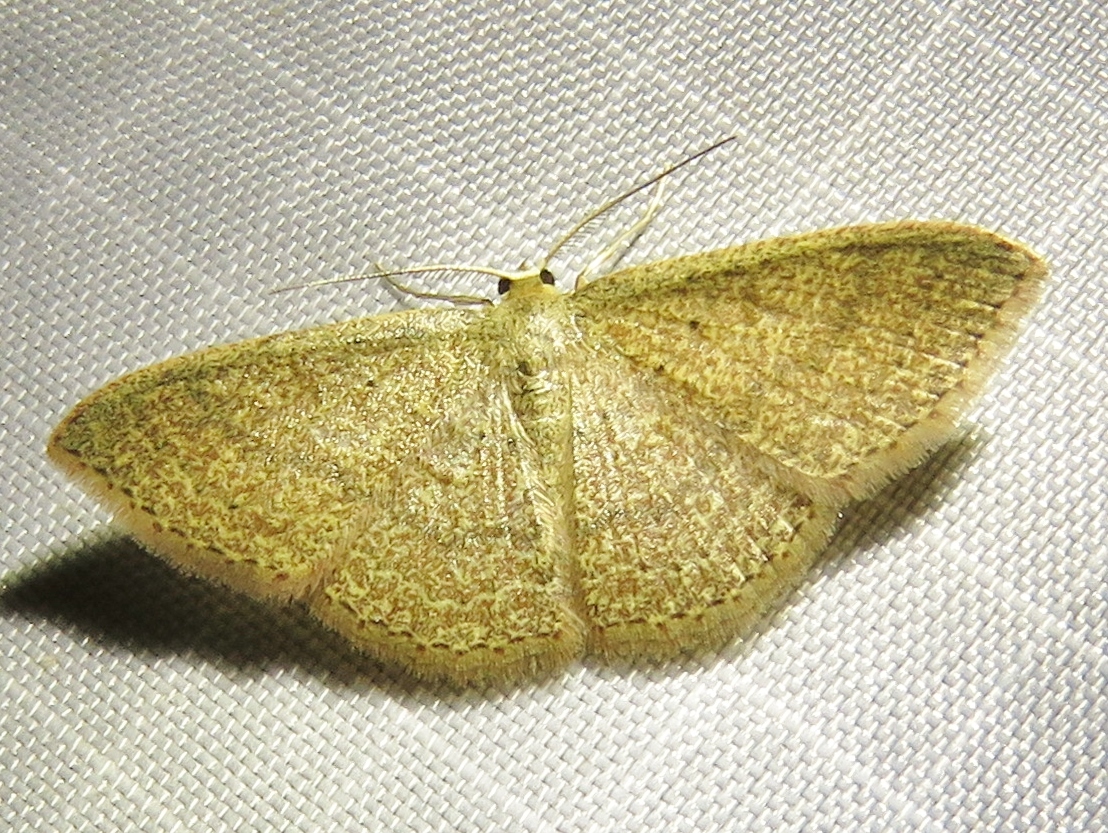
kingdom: Animalia
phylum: Arthropoda
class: Insecta
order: Lepidoptera
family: Geometridae
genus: Pleuroprucha
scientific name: Pleuroprucha insulsaria
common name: Common tan wave
